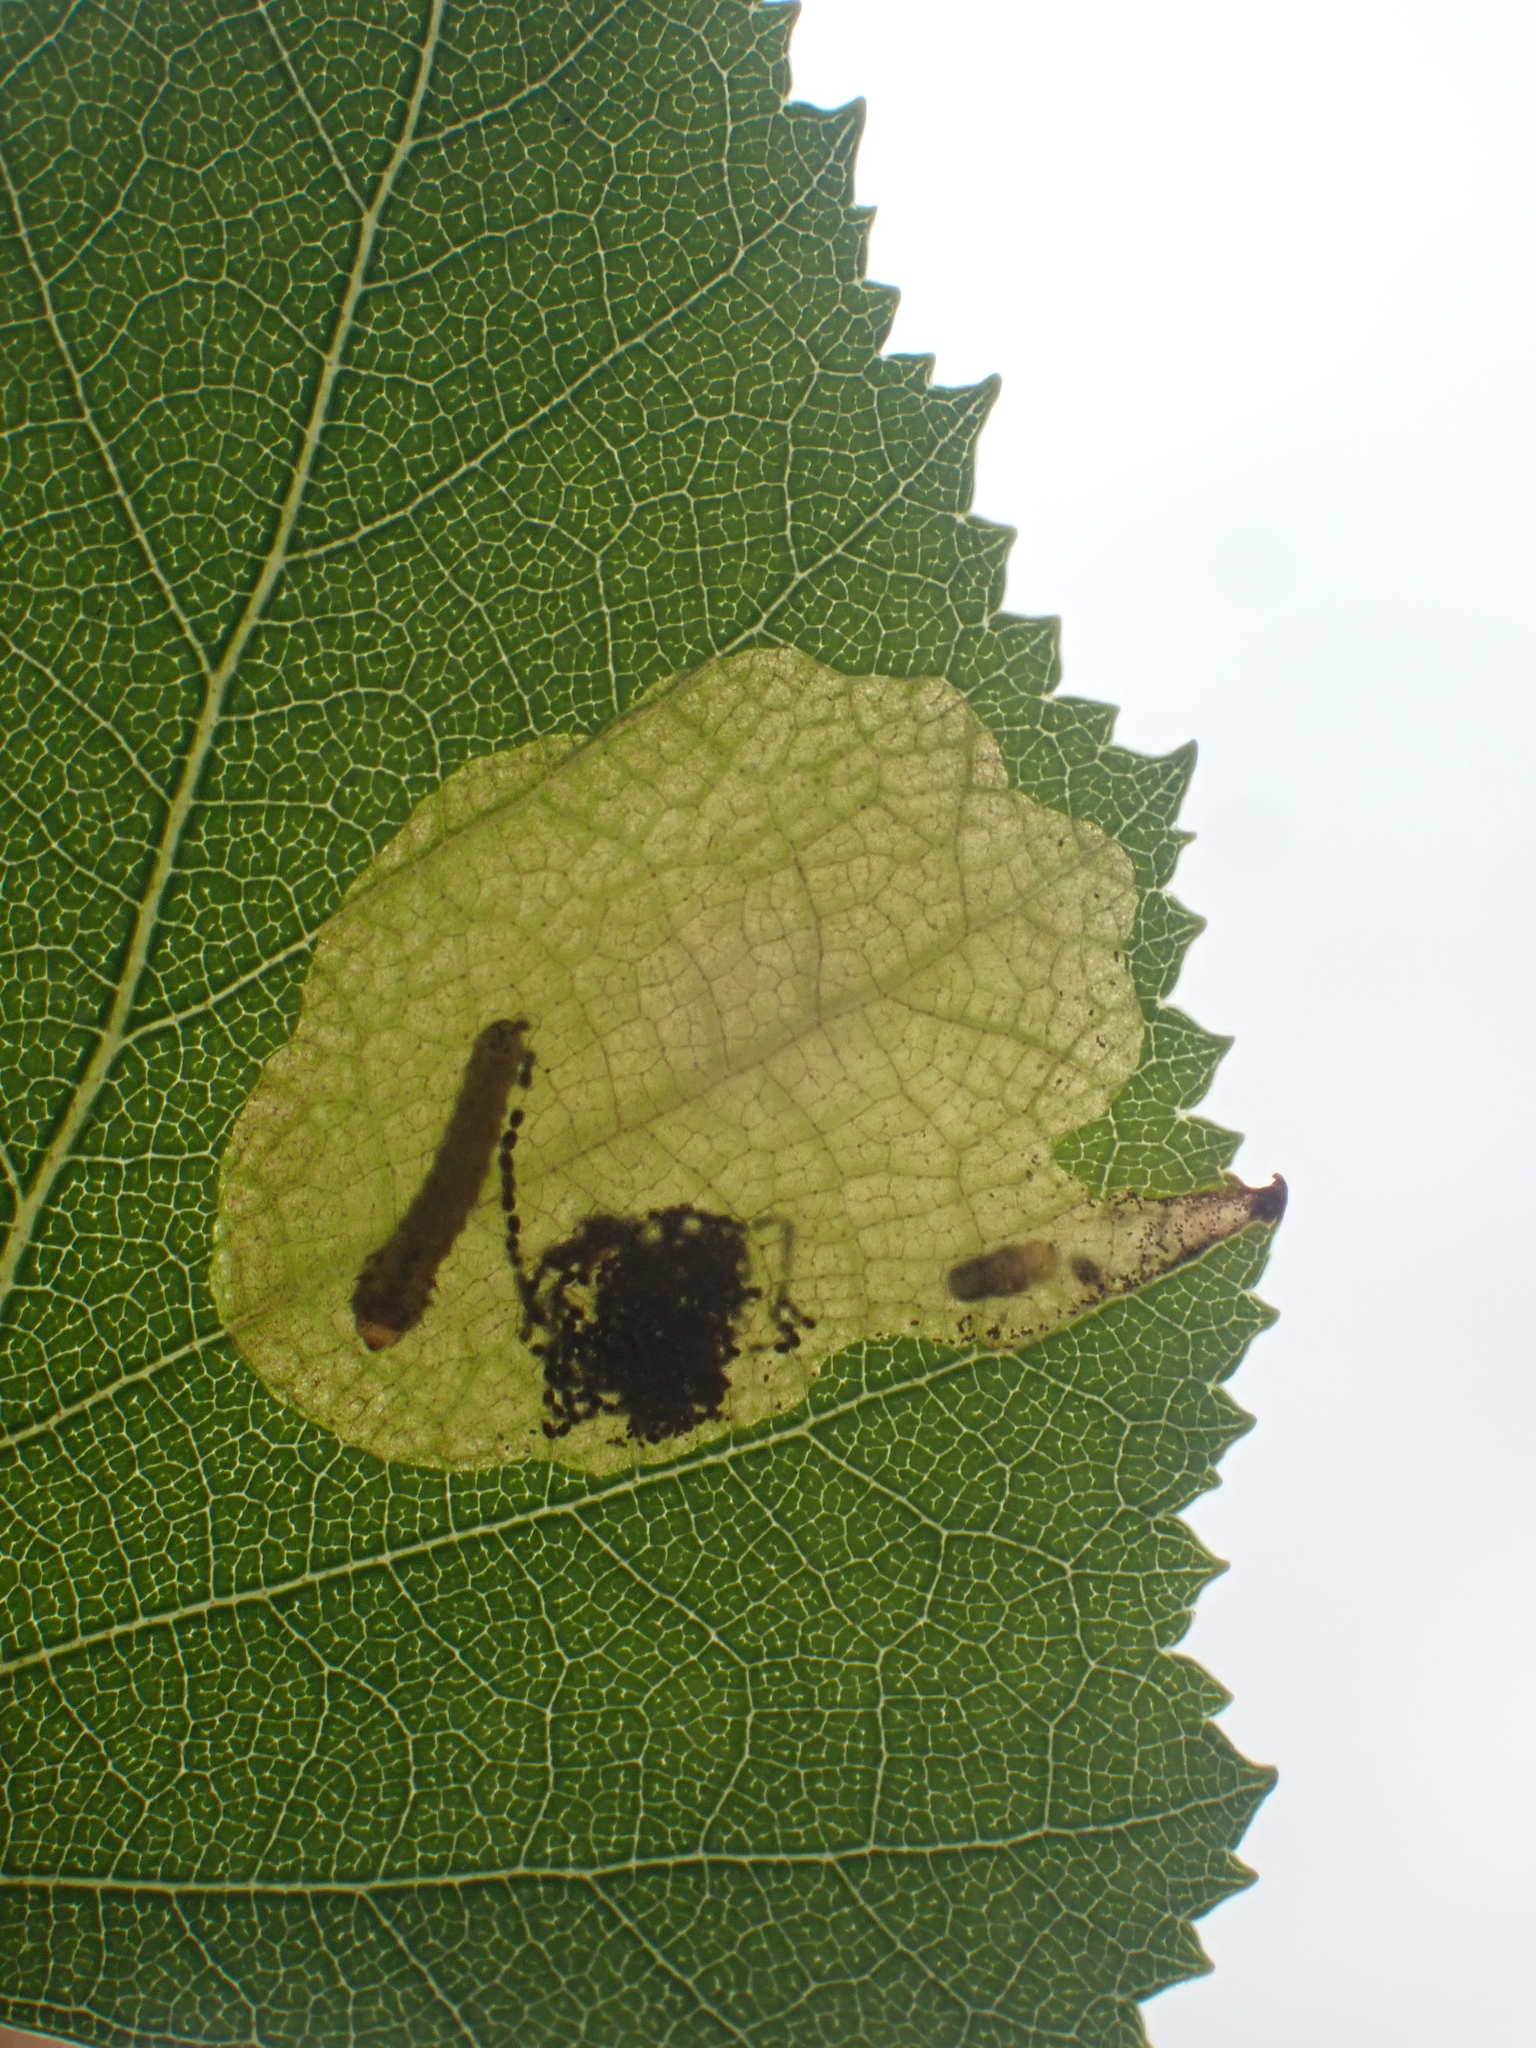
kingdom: Animalia
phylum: Arthropoda
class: Insecta
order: Hymenoptera
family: Tenthredinidae
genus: Fenusella
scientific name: Fenusella nana
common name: Early birch leaf edgeminer
